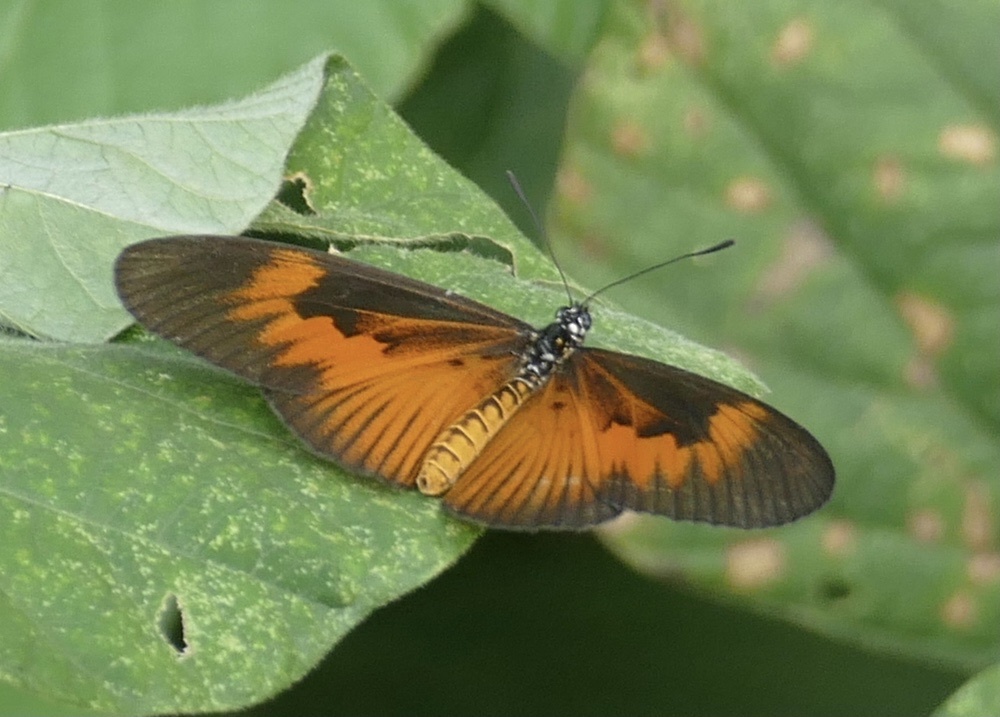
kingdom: Animalia
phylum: Arthropoda
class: Insecta
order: Lepidoptera
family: Nymphalidae
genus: Acraea
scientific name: Acraea Telchinia alciope
